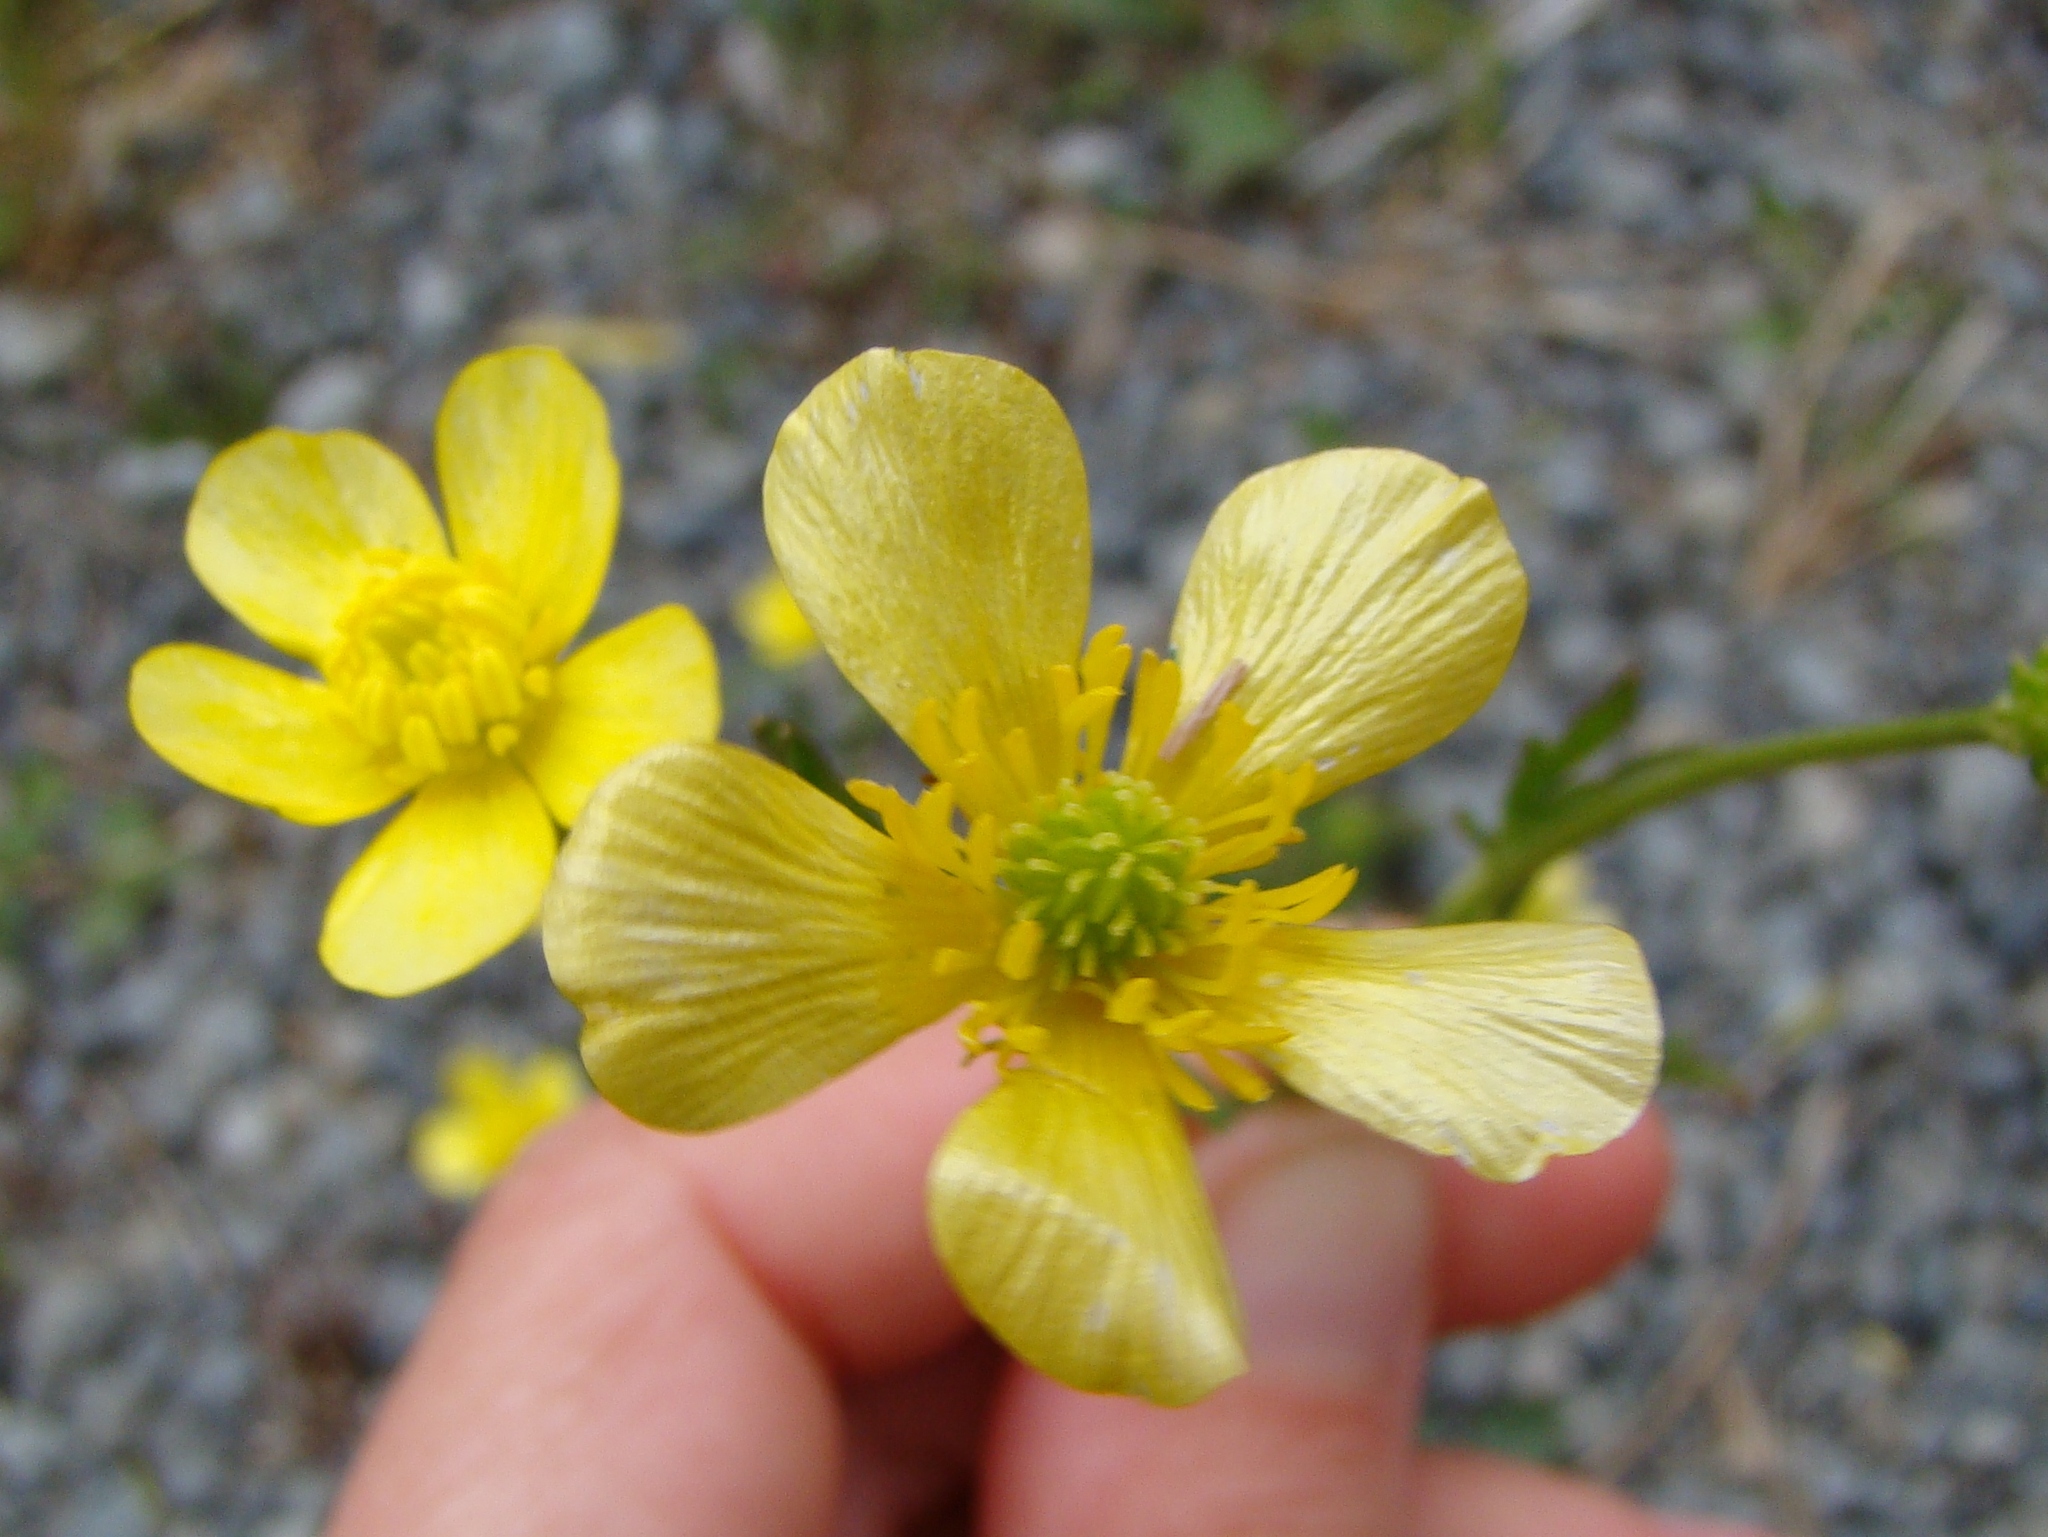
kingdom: Plantae
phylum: Tracheophyta
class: Magnoliopsida
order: Ranunculales
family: Ranunculaceae
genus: Ranunculus
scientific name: Ranunculus bulbosus
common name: Bulbous buttercup
